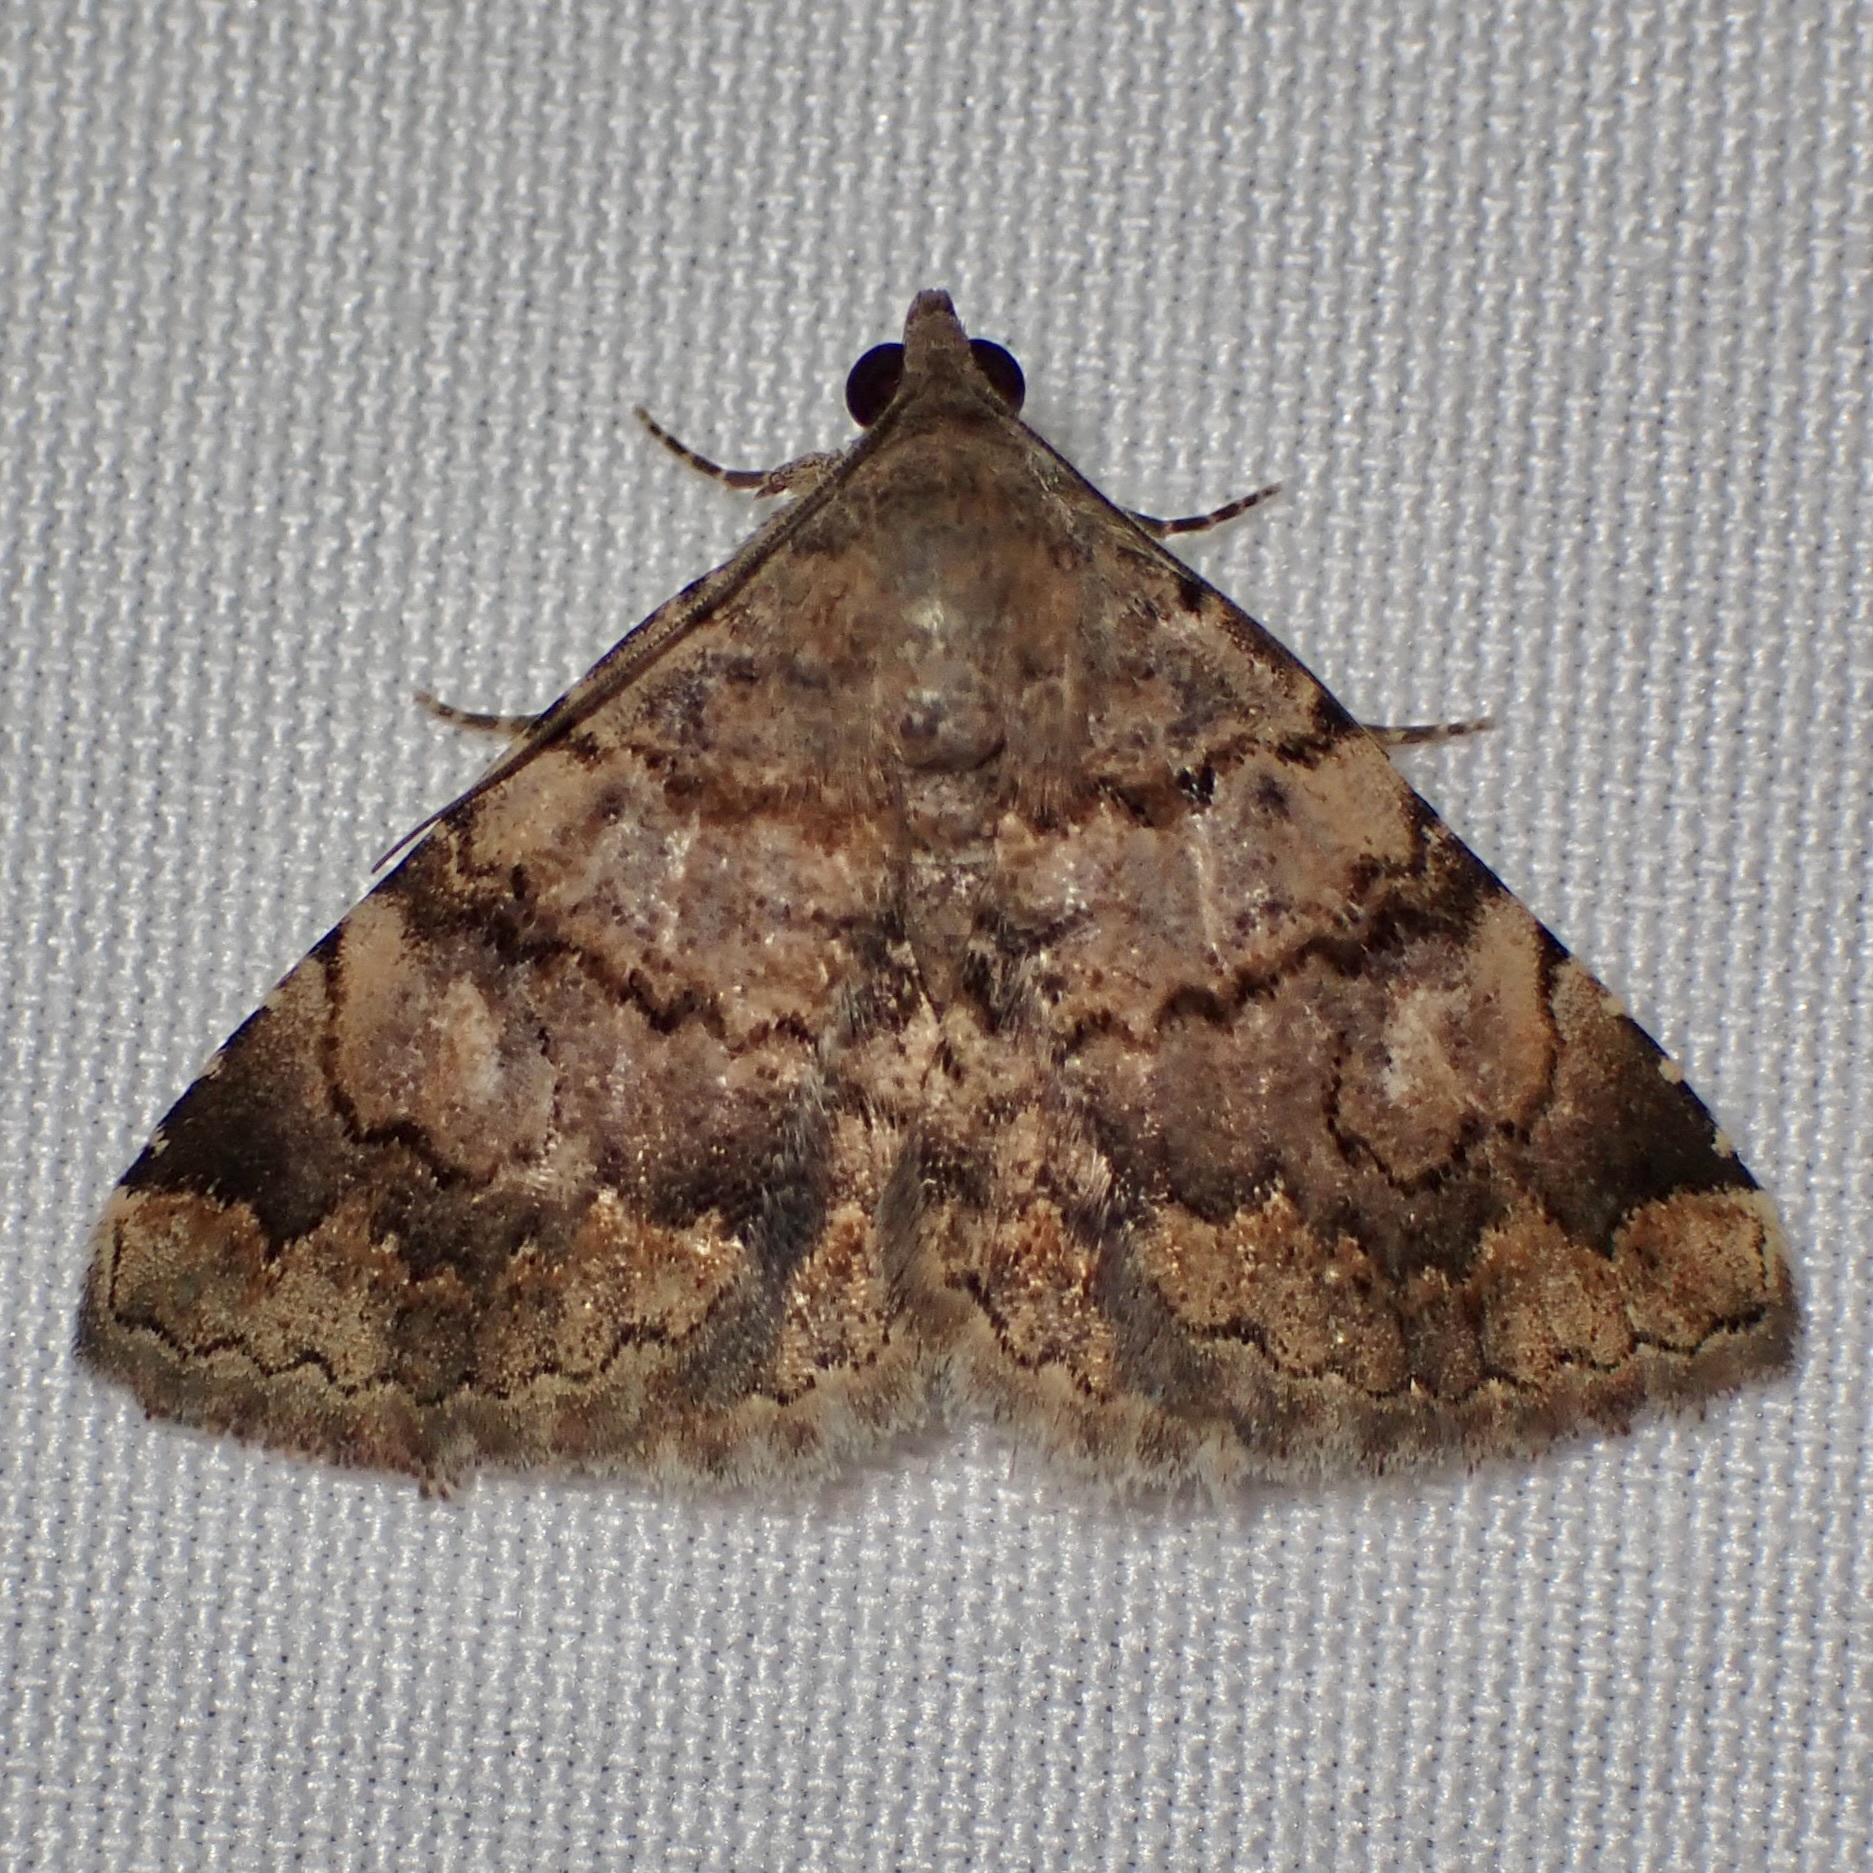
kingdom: Animalia
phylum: Arthropoda
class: Insecta
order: Lepidoptera
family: Erebidae
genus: Toxonprucha
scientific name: Toxonprucha repentis
